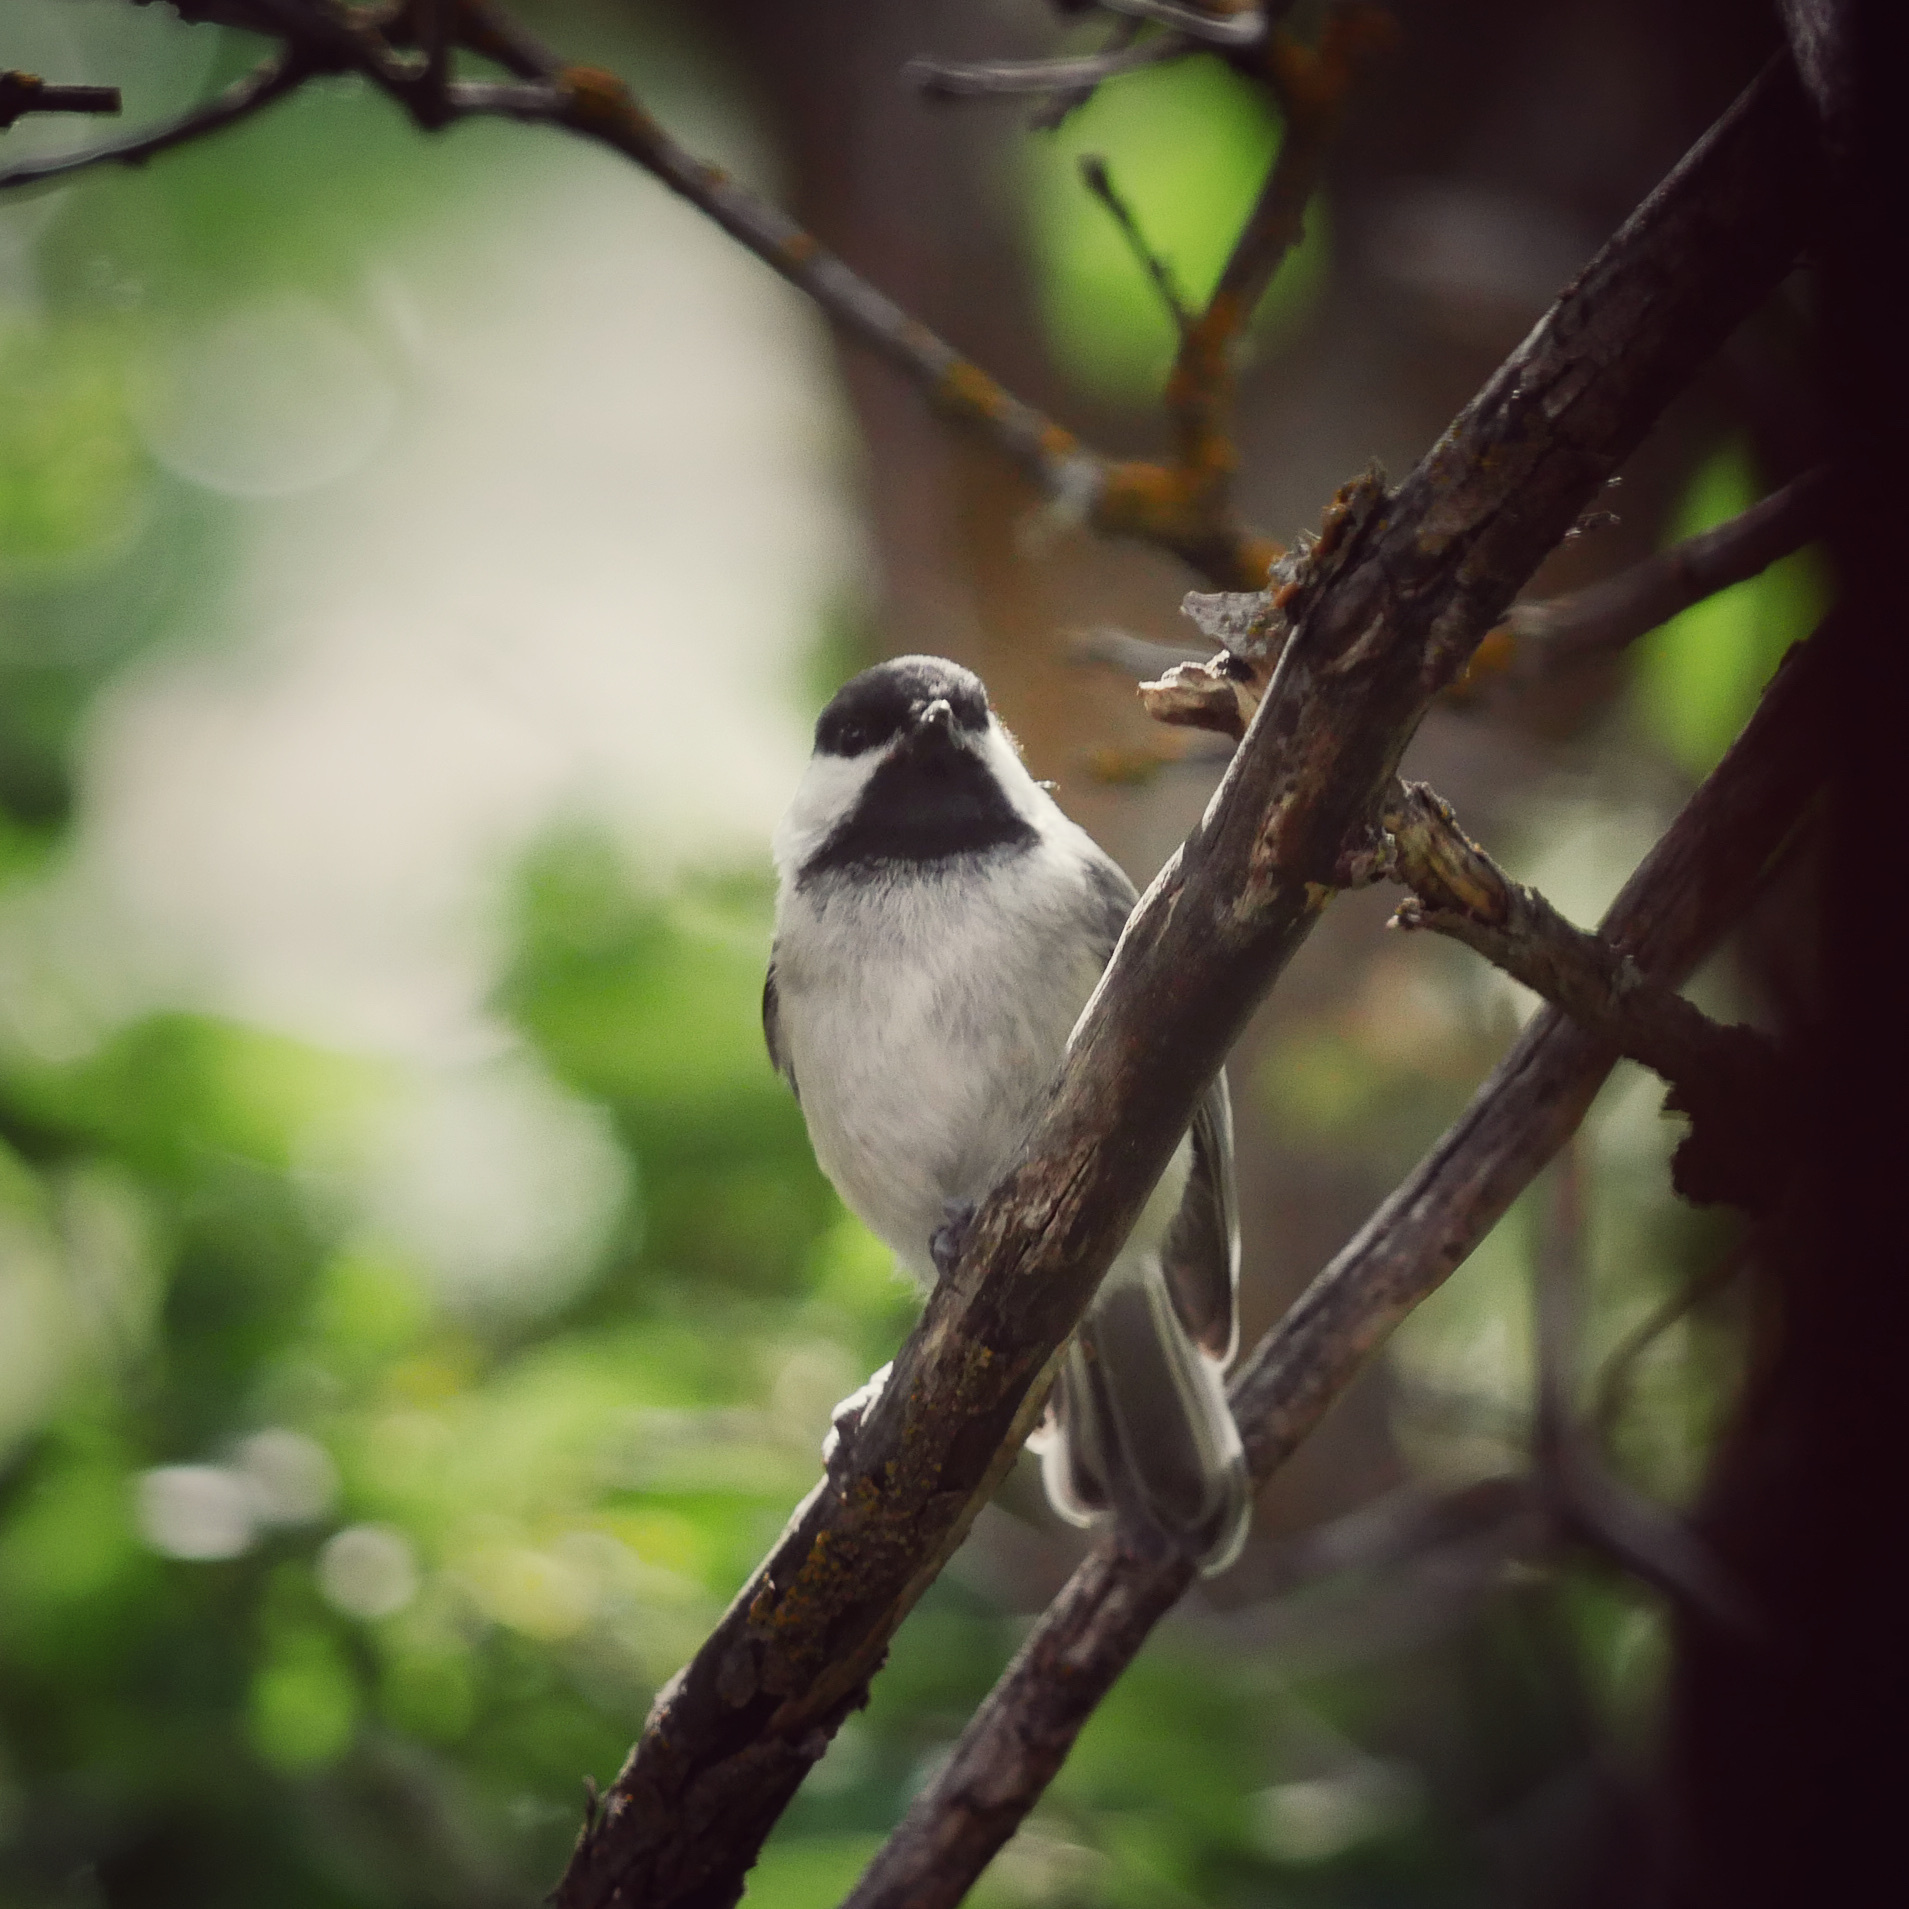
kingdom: Animalia
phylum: Chordata
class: Aves
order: Passeriformes
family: Paridae
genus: Poecile
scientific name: Poecile atricapillus
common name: Black-capped chickadee
